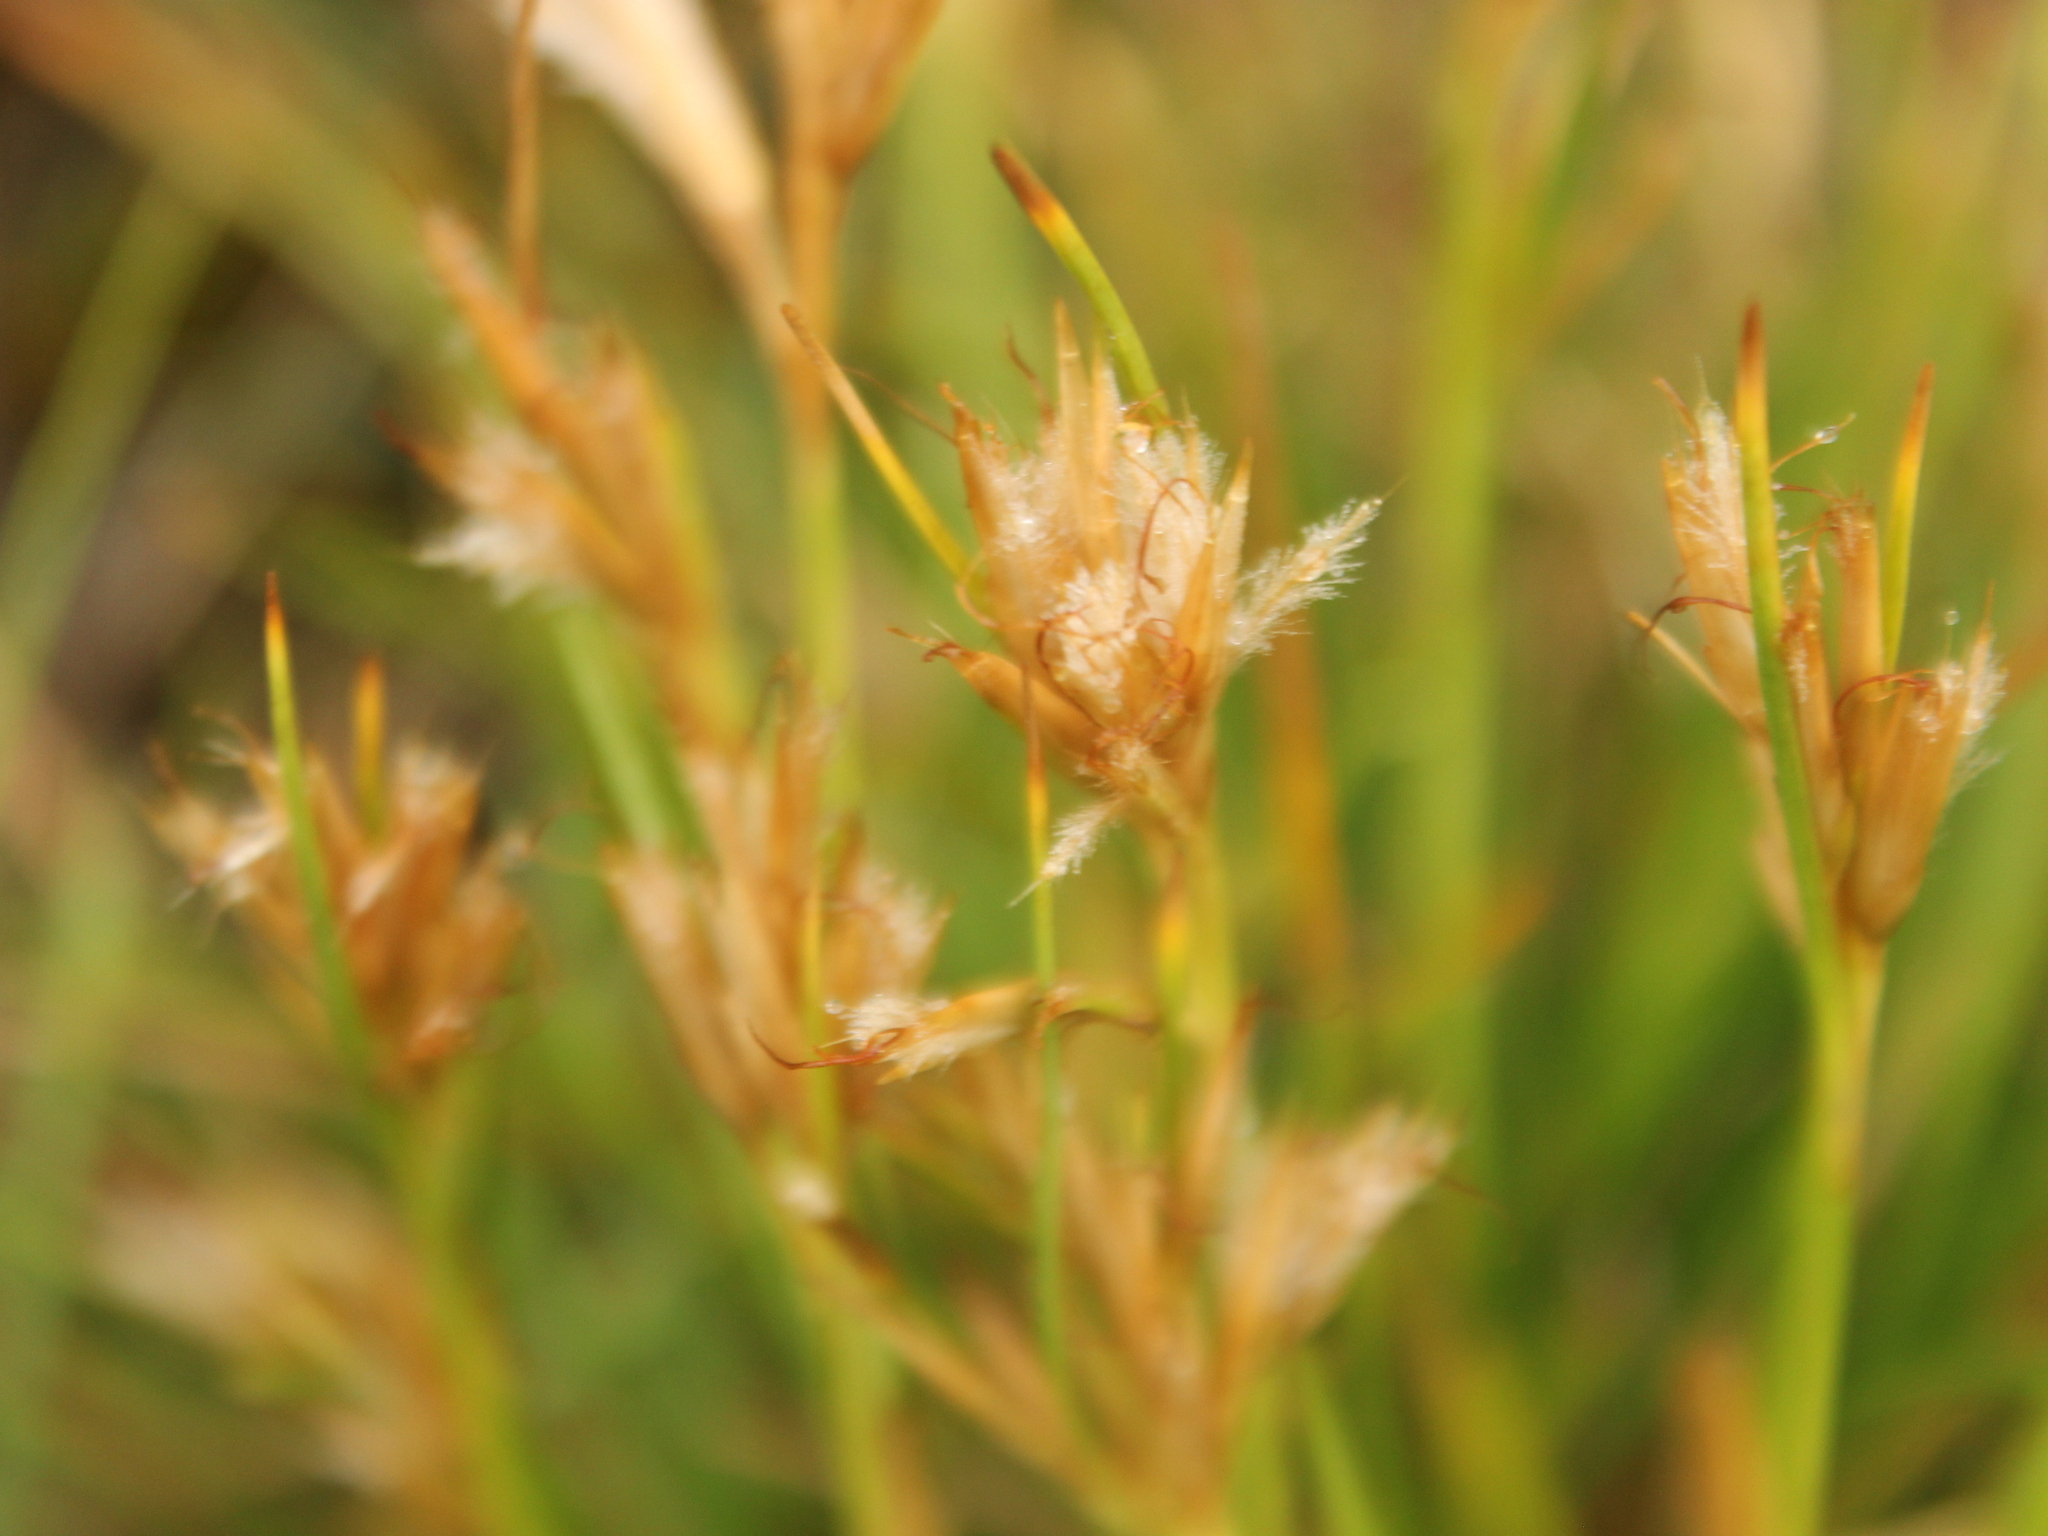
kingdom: Plantae
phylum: Tracheophyta
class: Liliopsida
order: Poales
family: Cyperaceae
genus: Carpha
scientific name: Carpha alpina
